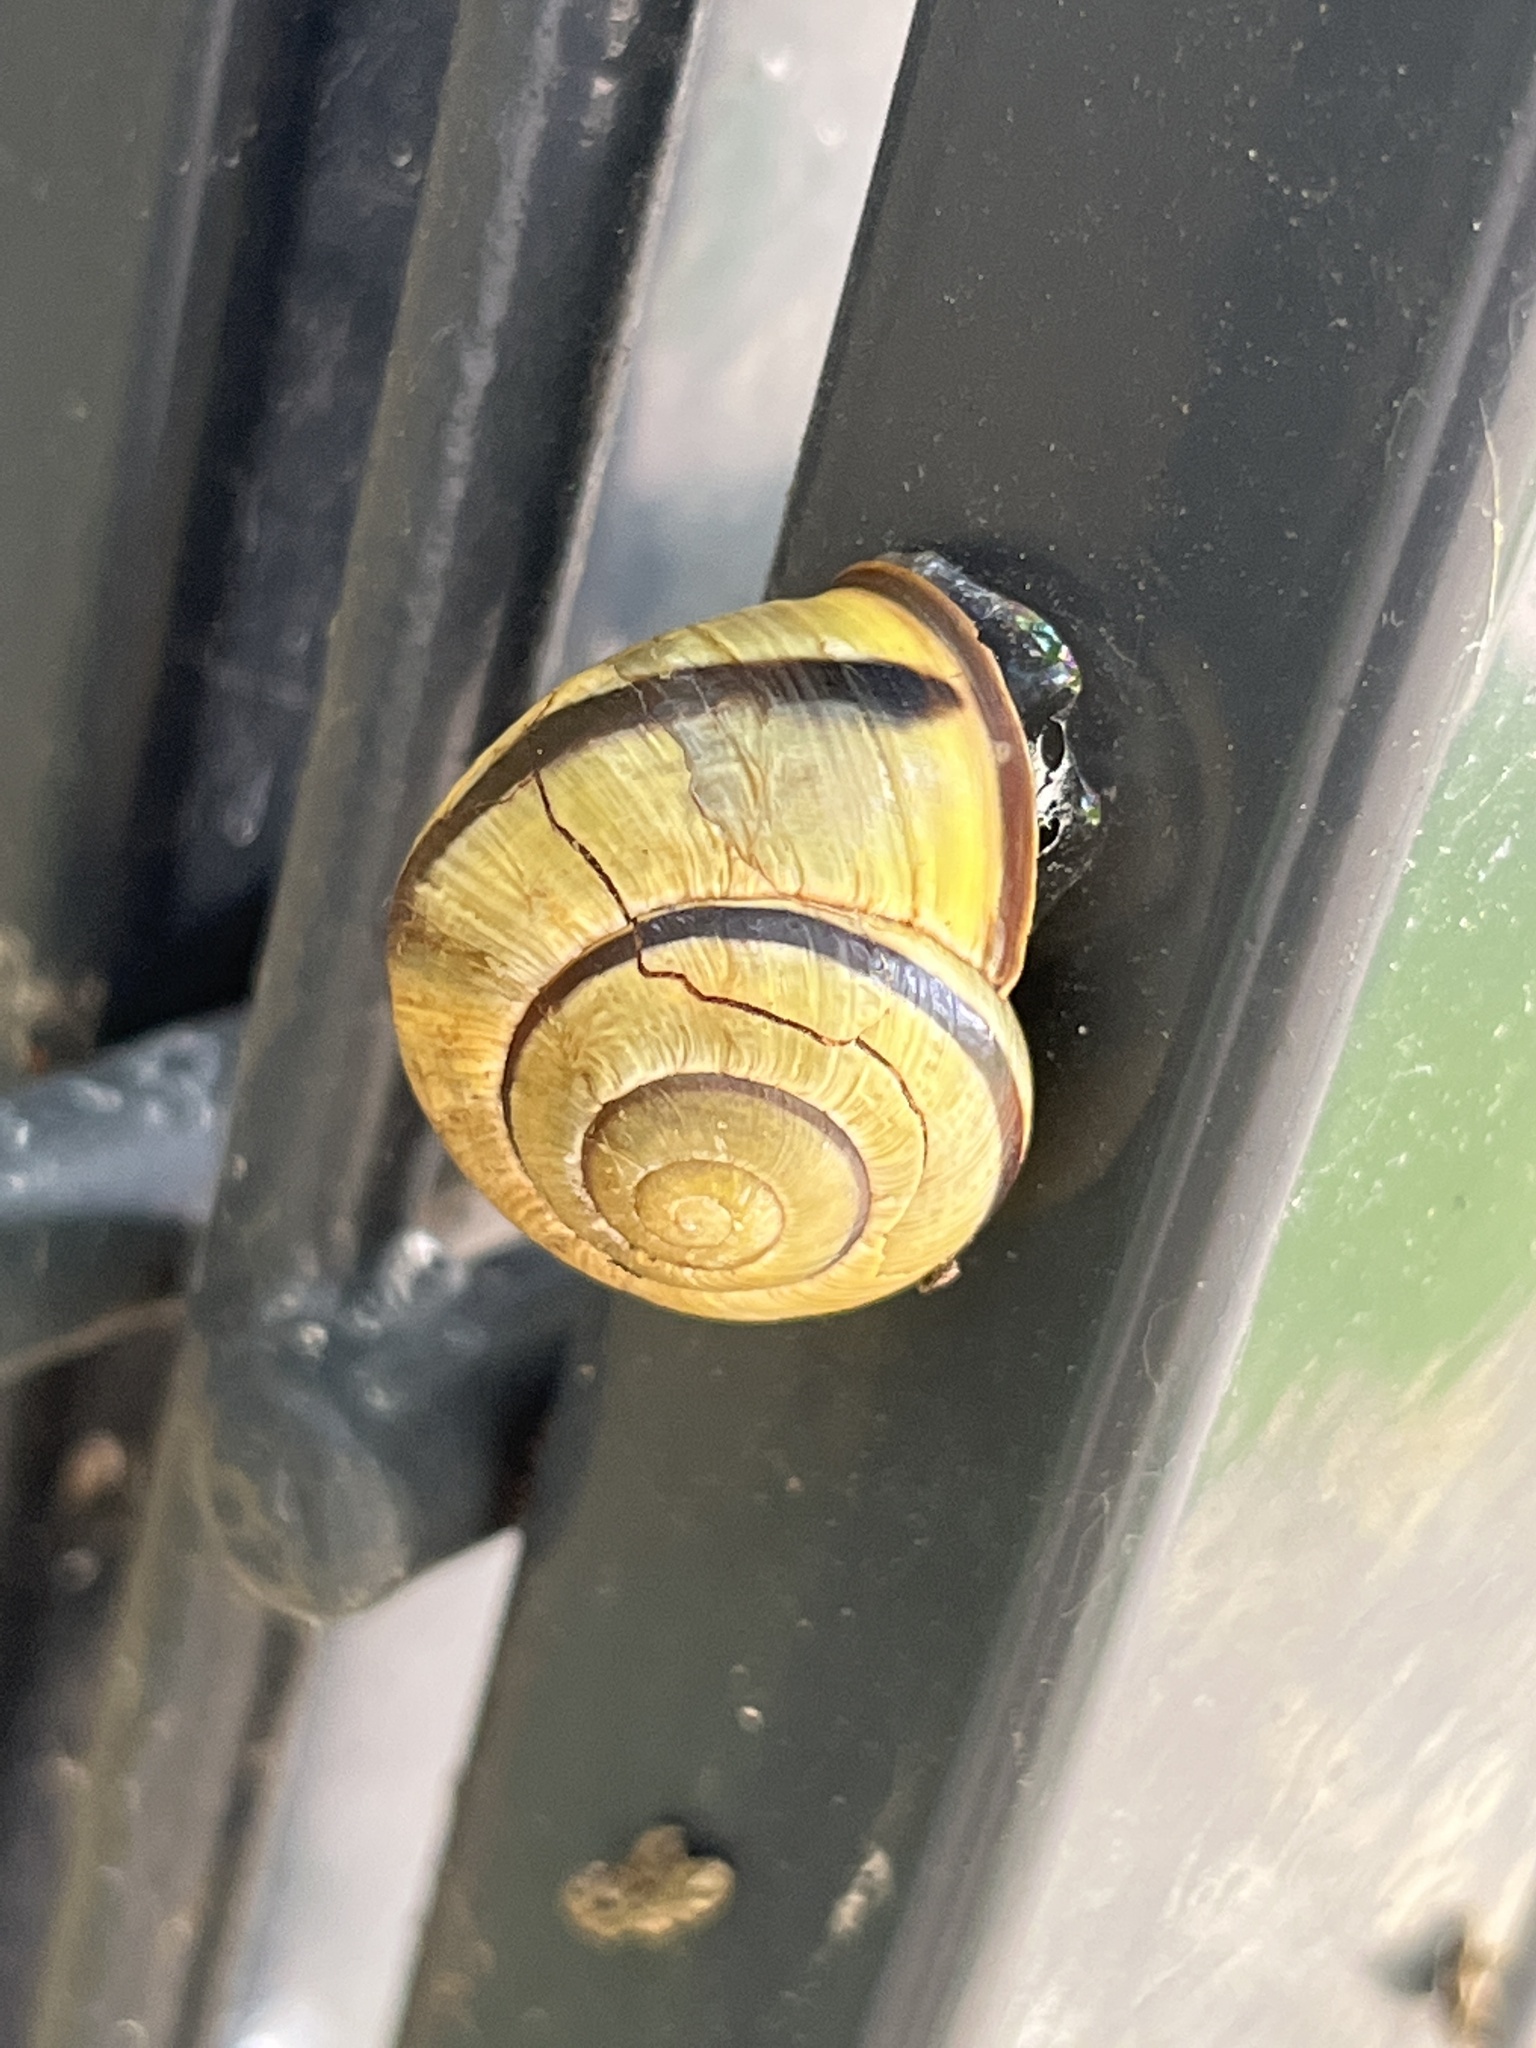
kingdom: Animalia
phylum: Mollusca
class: Gastropoda
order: Stylommatophora
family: Helicidae
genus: Cepaea
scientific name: Cepaea nemoralis
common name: Grovesnail
